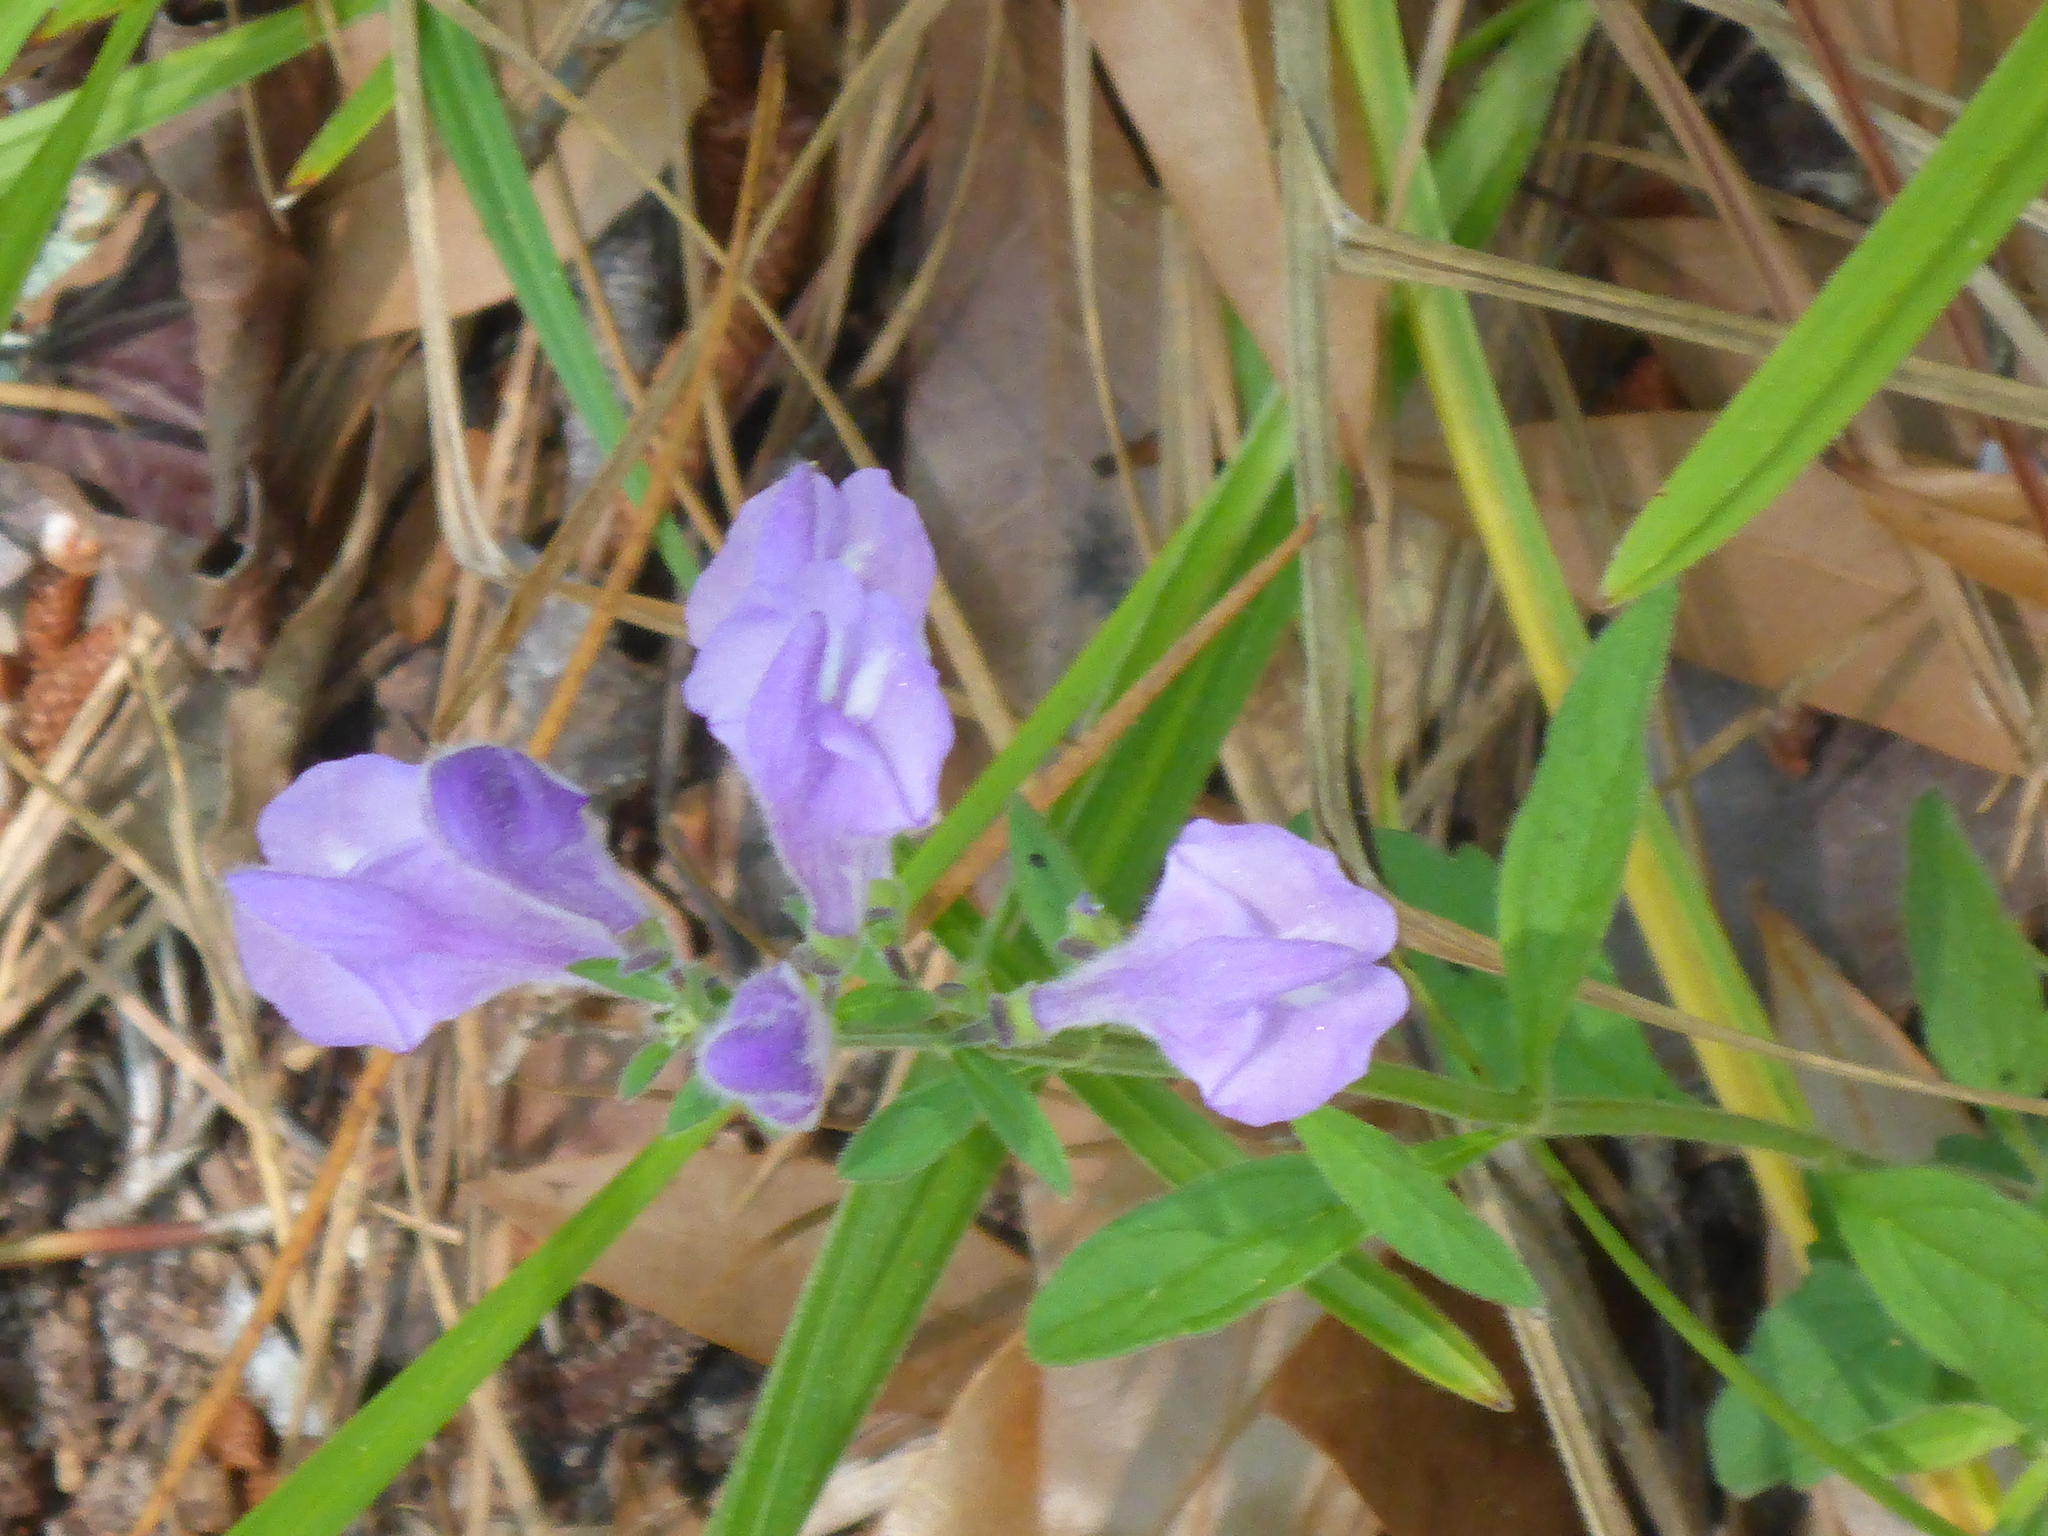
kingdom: Plantae
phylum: Tracheophyta
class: Magnoliopsida
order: Lamiales
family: Lamiaceae
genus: Scutellaria
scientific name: Scutellaria integrifolia
